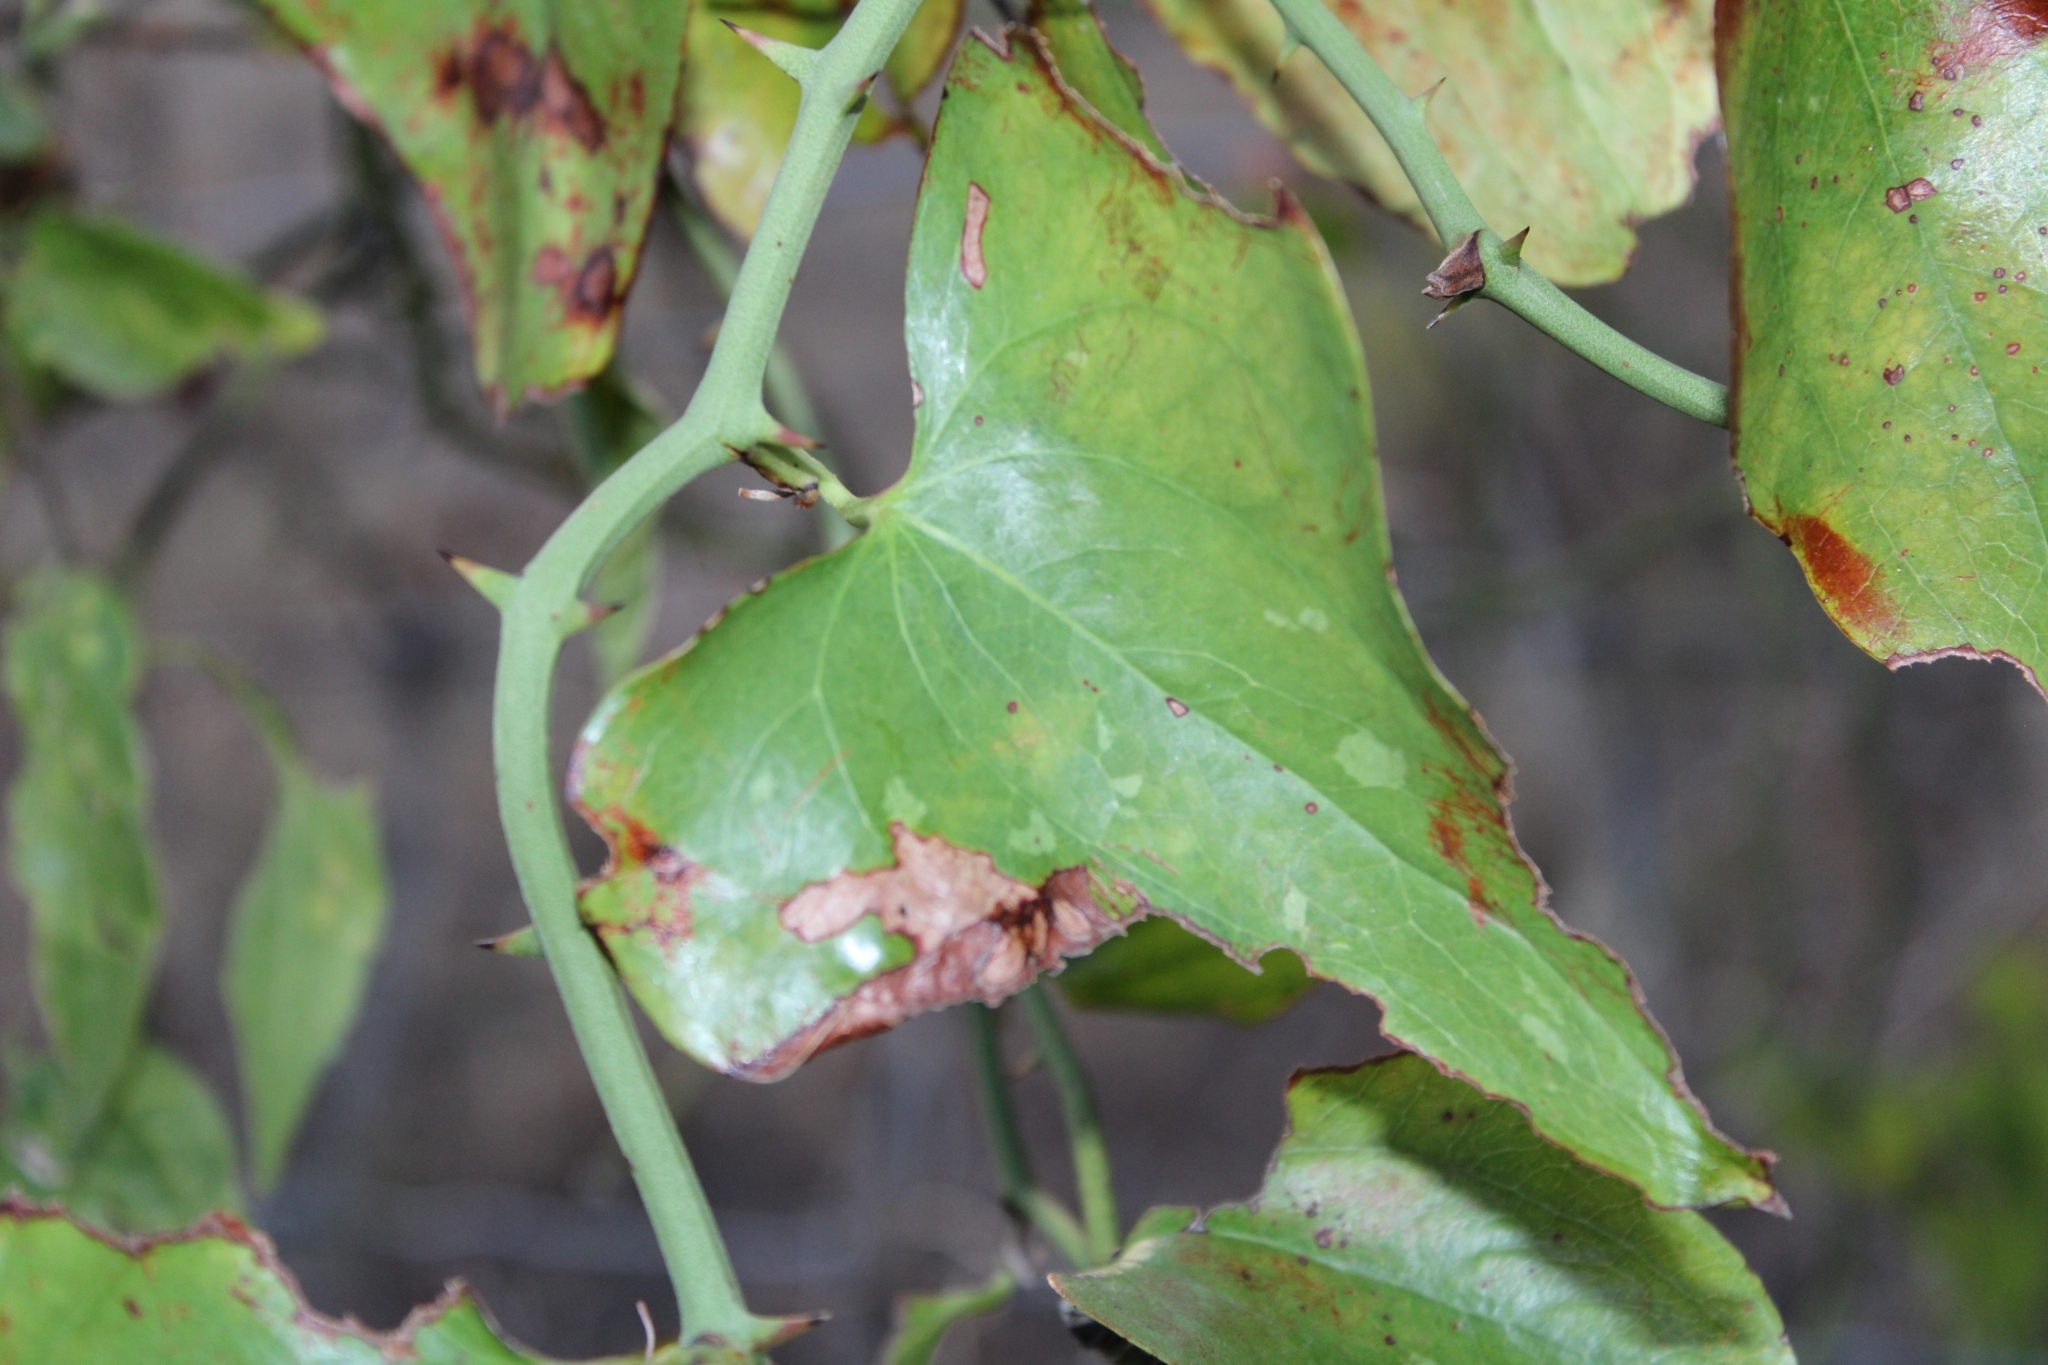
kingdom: Plantae
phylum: Tracheophyta
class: Liliopsida
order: Liliales
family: Smilacaceae
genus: Smilax
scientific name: Smilax bona-nox
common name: Catbrier
